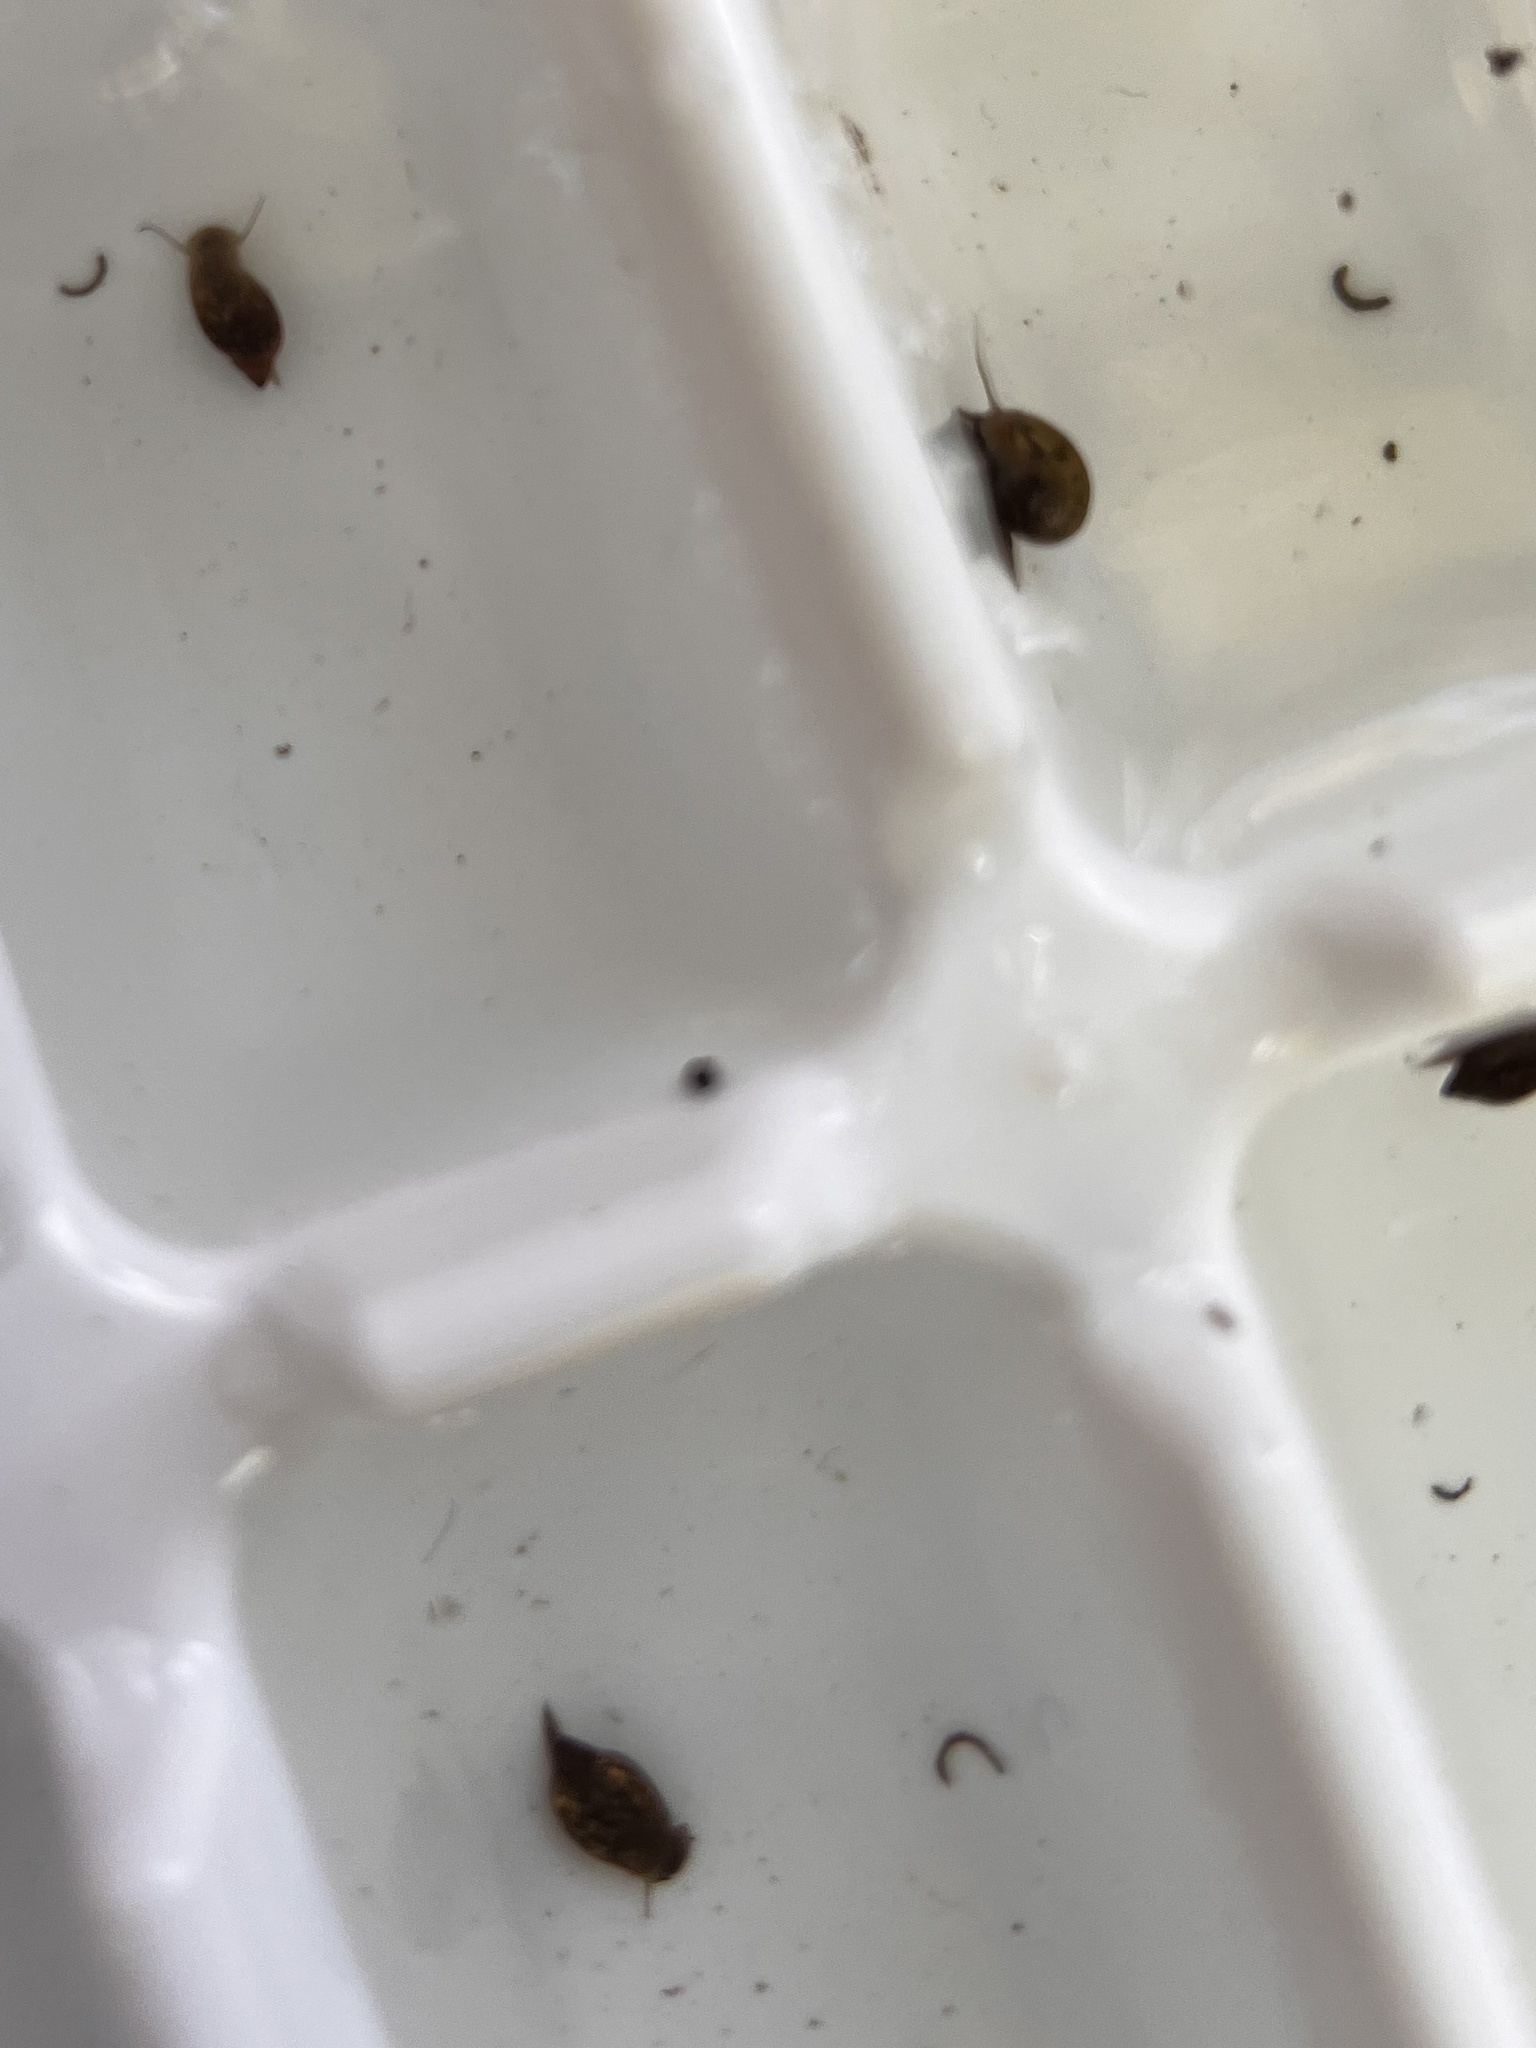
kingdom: Animalia
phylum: Mollusca
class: Gastropoda
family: Physidae
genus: Physella
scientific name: Physella acuta
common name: European physa
